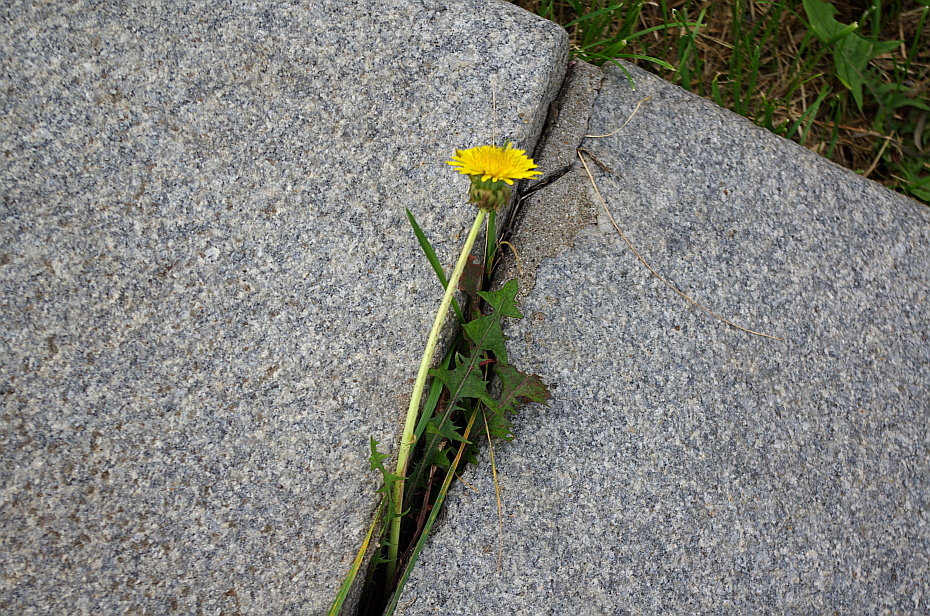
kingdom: Plantae
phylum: Tracheophyta
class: Magnoliopsida
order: Asterales
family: Asteraceae
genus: Taraxacum
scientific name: Taraxacum officinale
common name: Common dandelion
